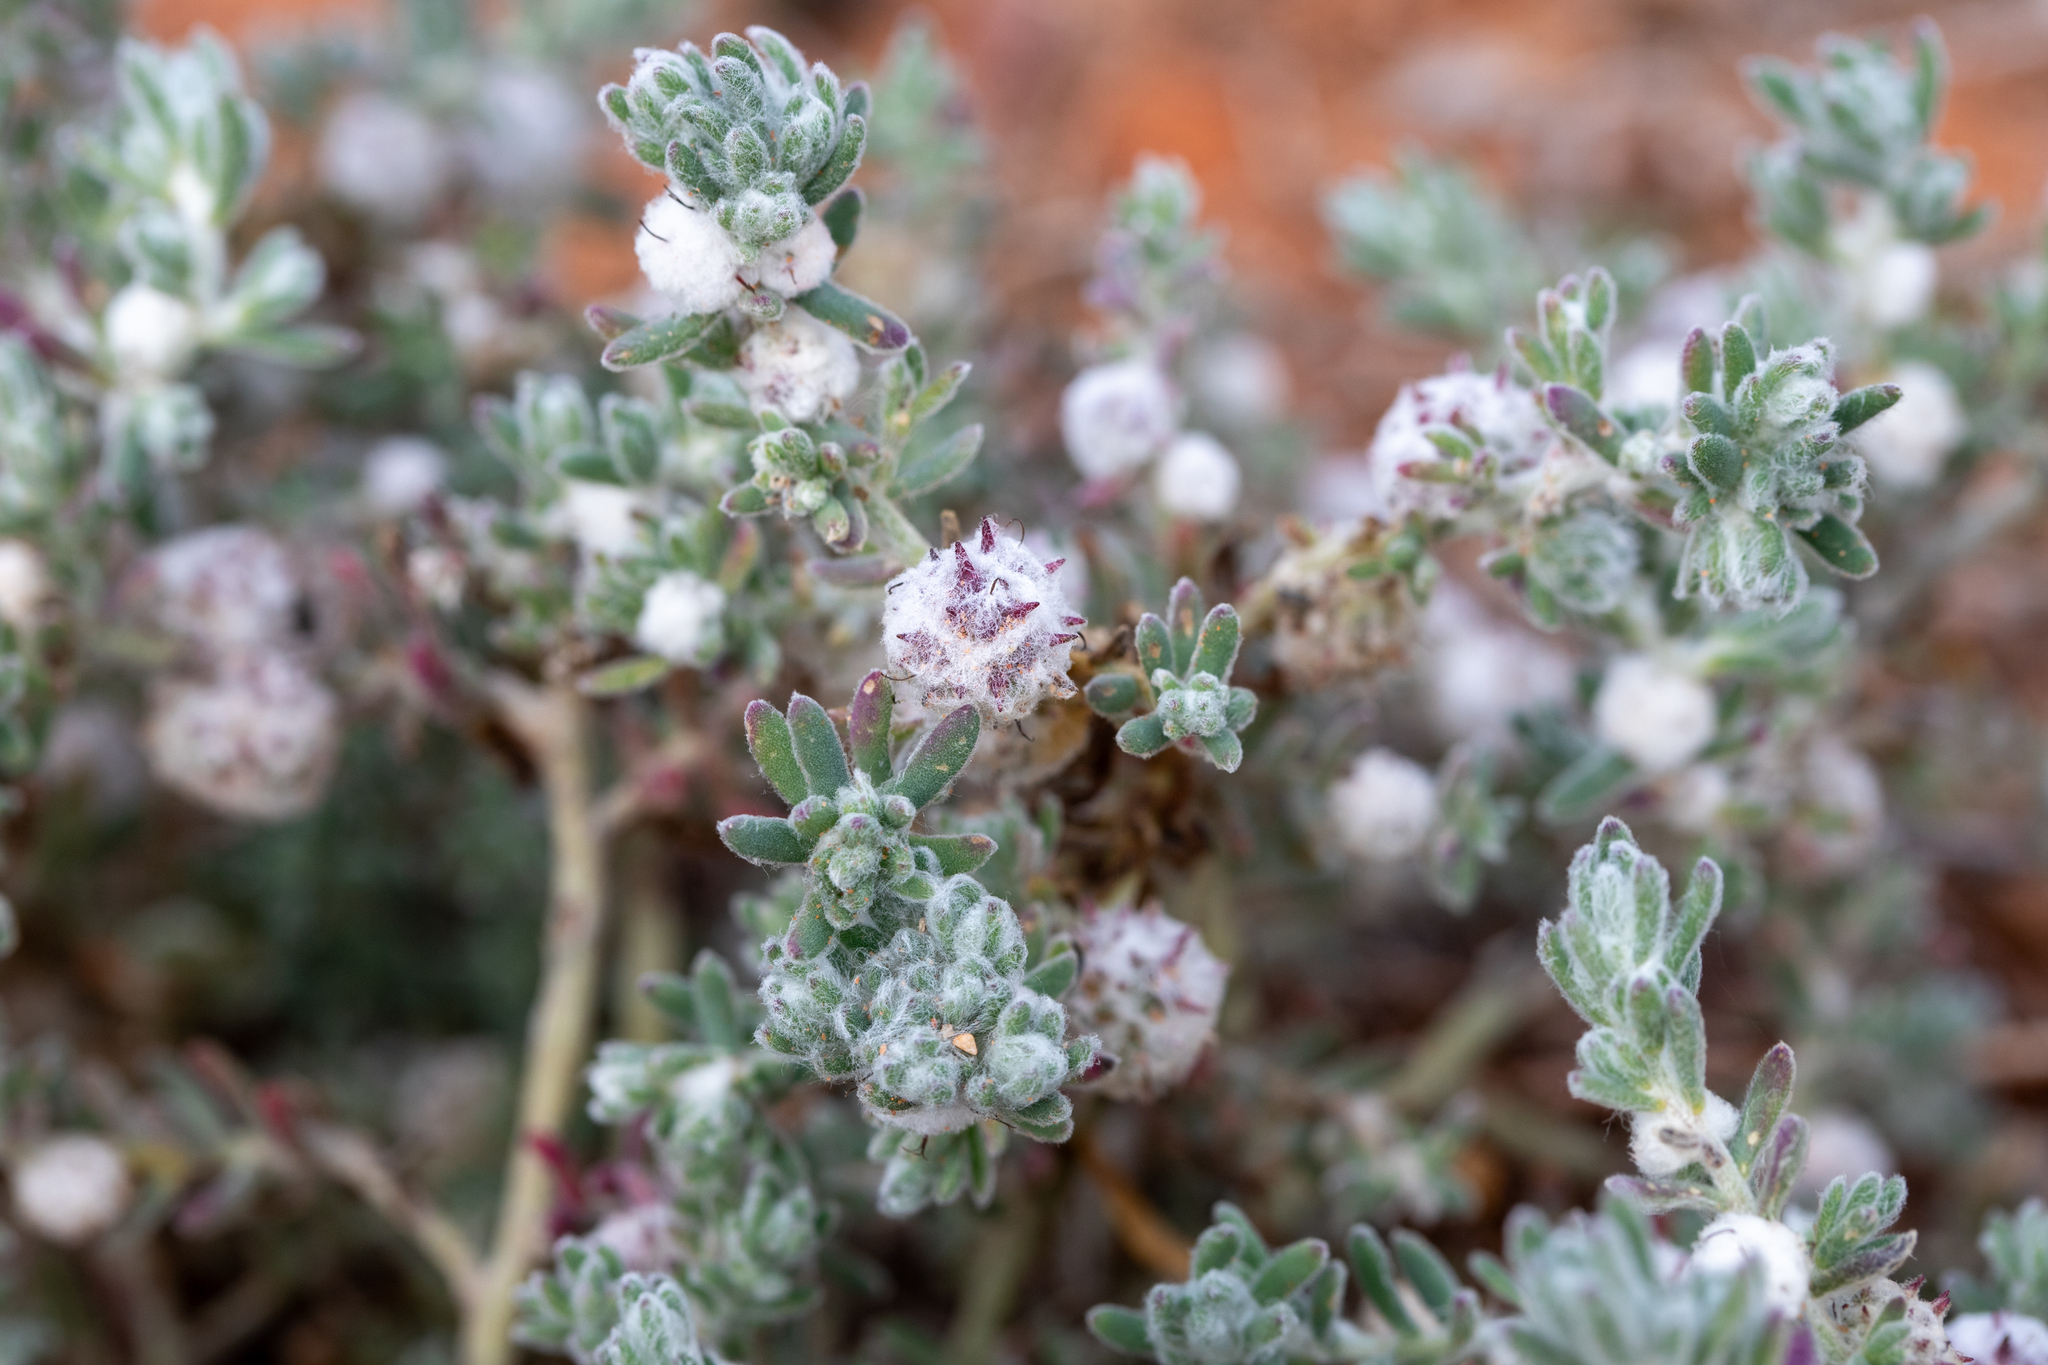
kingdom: Plantae
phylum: Tracheophyta
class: Magnoliopsida
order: Caryophyllales
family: Amaranthaceae
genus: Dissocarpus
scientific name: Dissocarpus paradoxus
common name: Bur-saltbush
